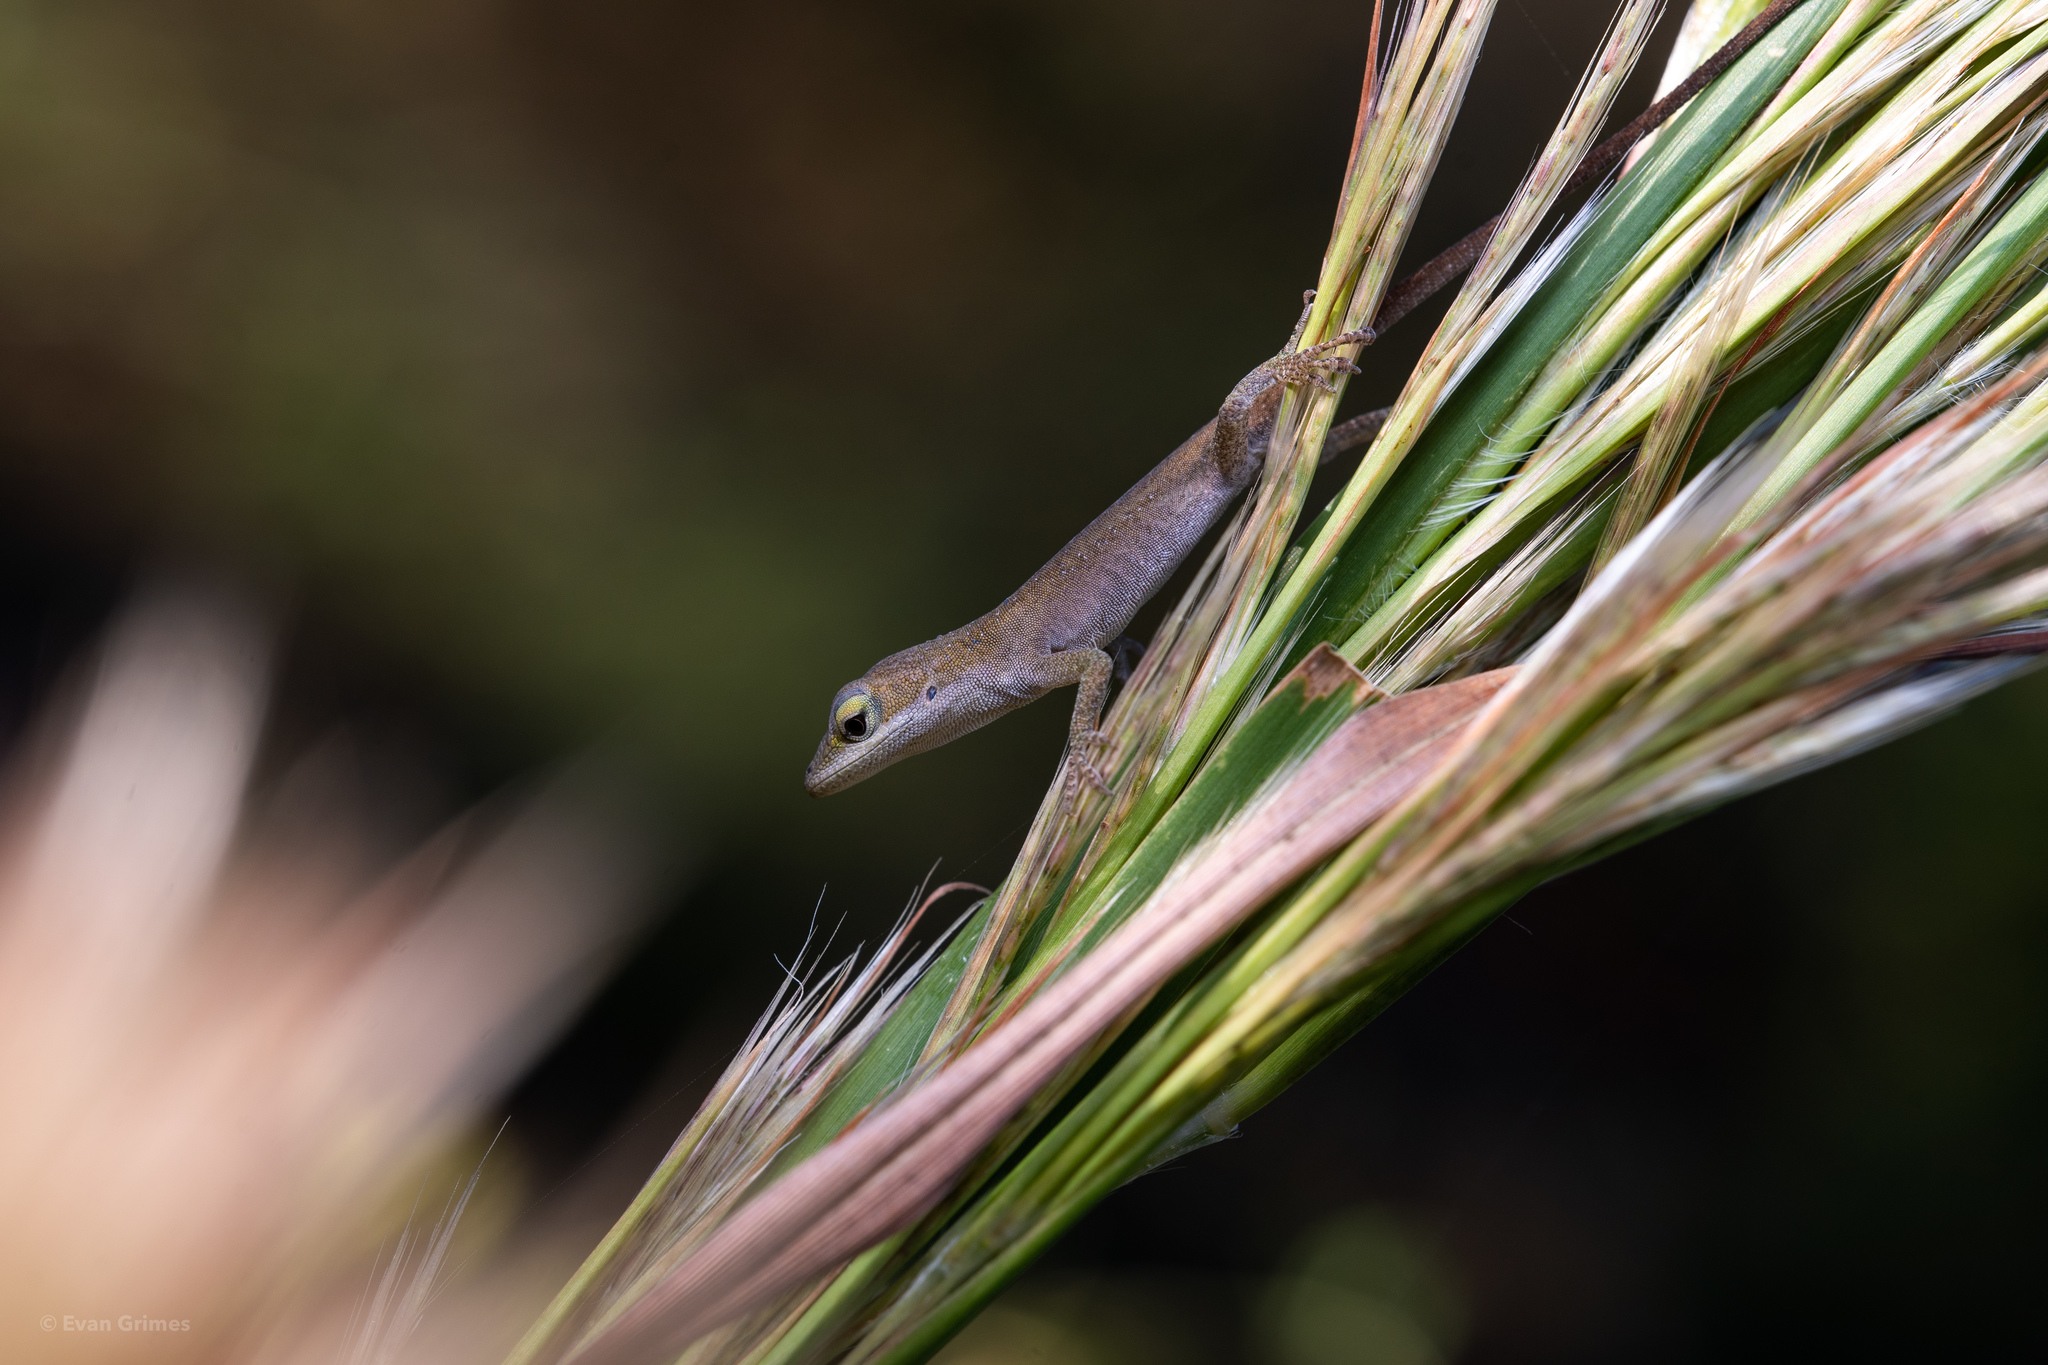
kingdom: Animalia
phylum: Chordata
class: Squamata
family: Dactyloidae
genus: Anolis
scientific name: Anolis carolinensis
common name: Green anole
